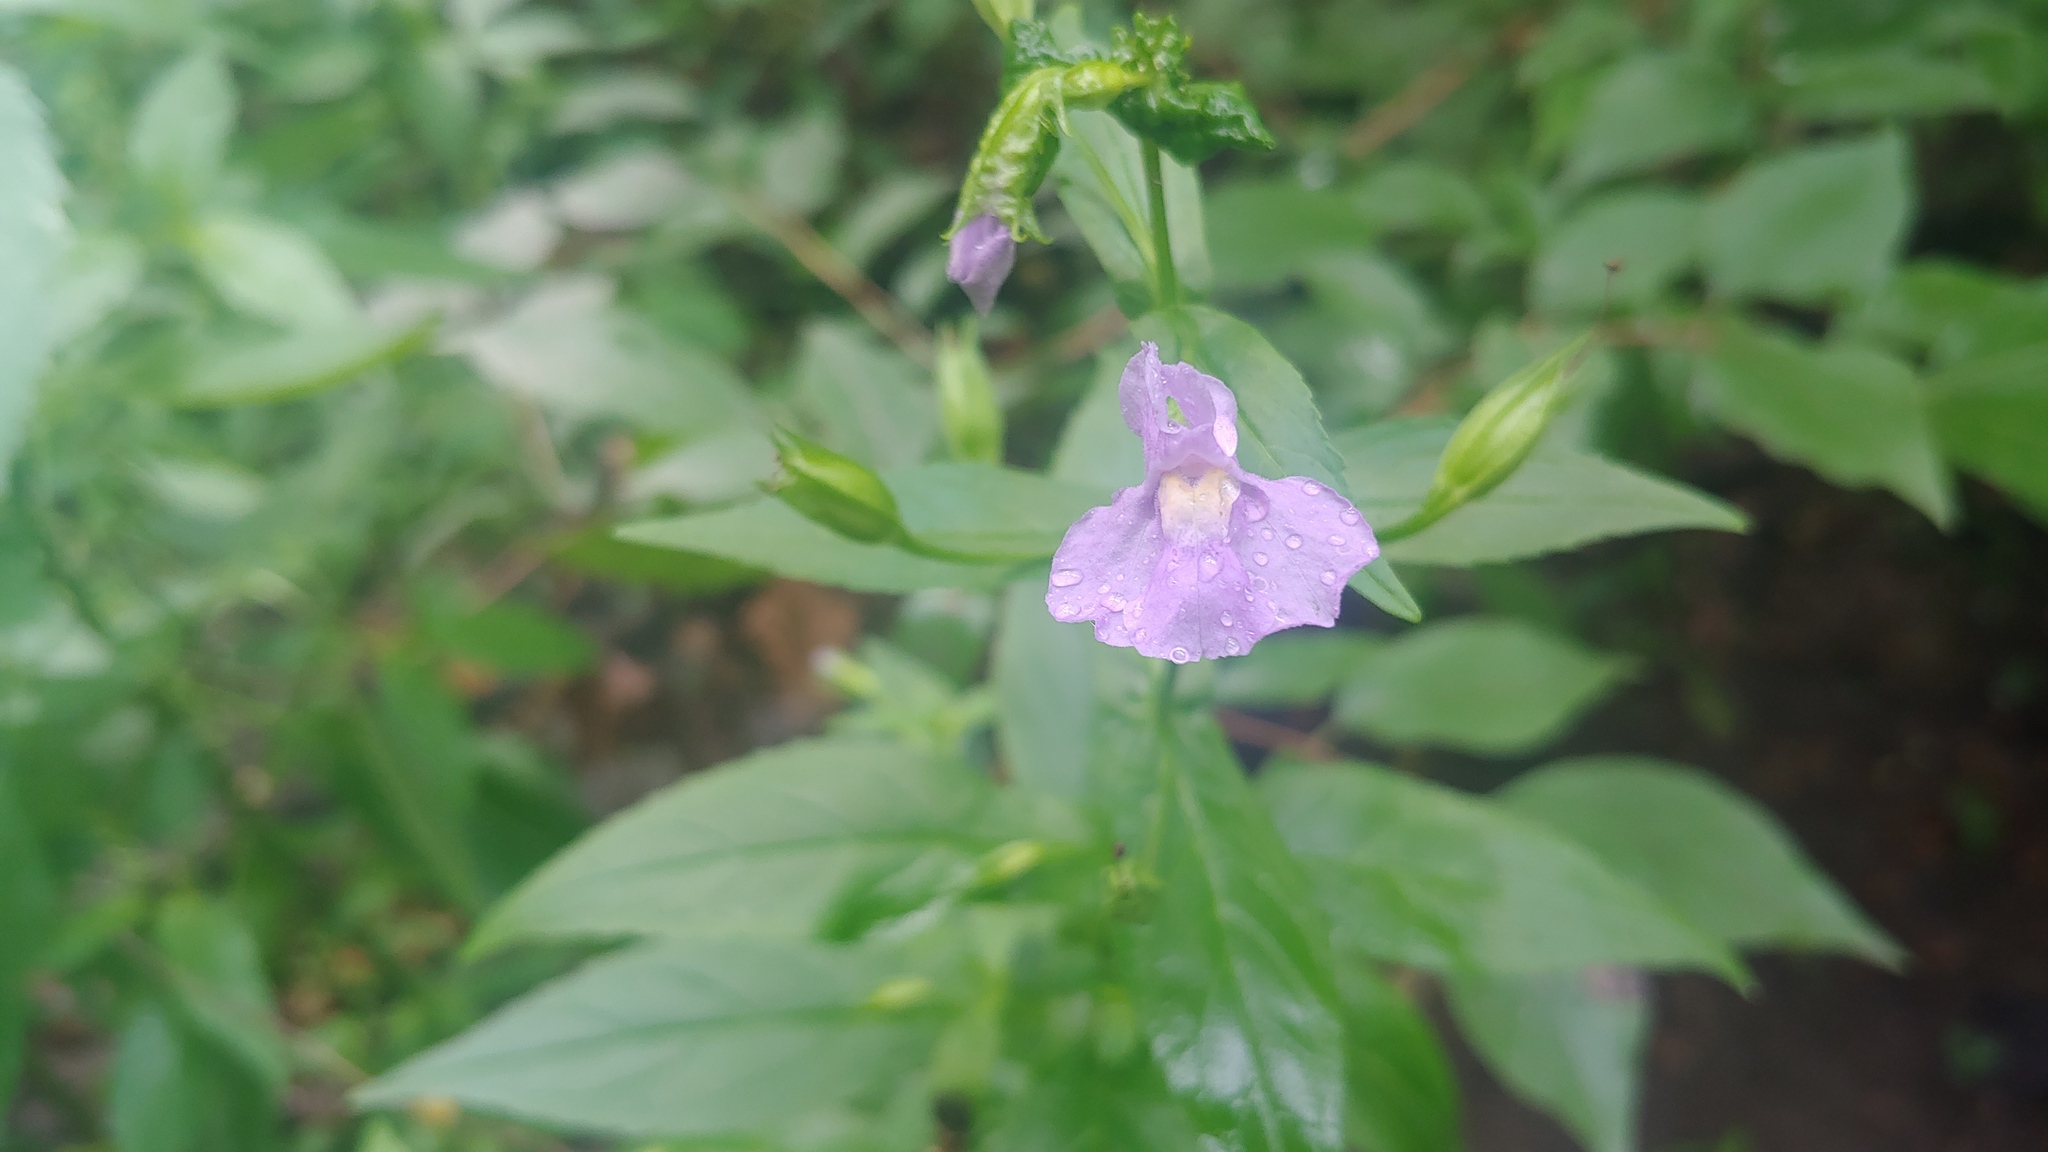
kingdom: Plantae
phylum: Tracheophyta
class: Magnoliopsida
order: Lamiales
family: Phrymaceae
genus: Mimulus
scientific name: Mimulus ringens
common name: Allegheny monkeyflower
